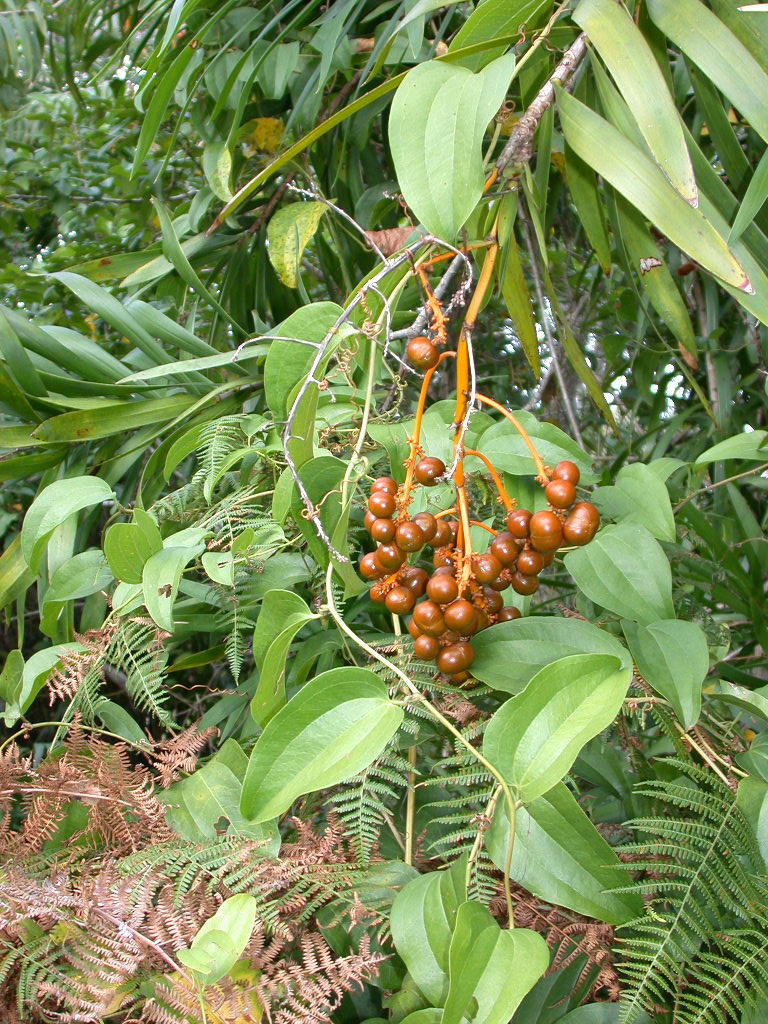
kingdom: Plantae
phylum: Tracheophyta
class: Liliopsida
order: Liliales
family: Smilacaceae
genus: Smilax
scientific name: Smilax anceps
